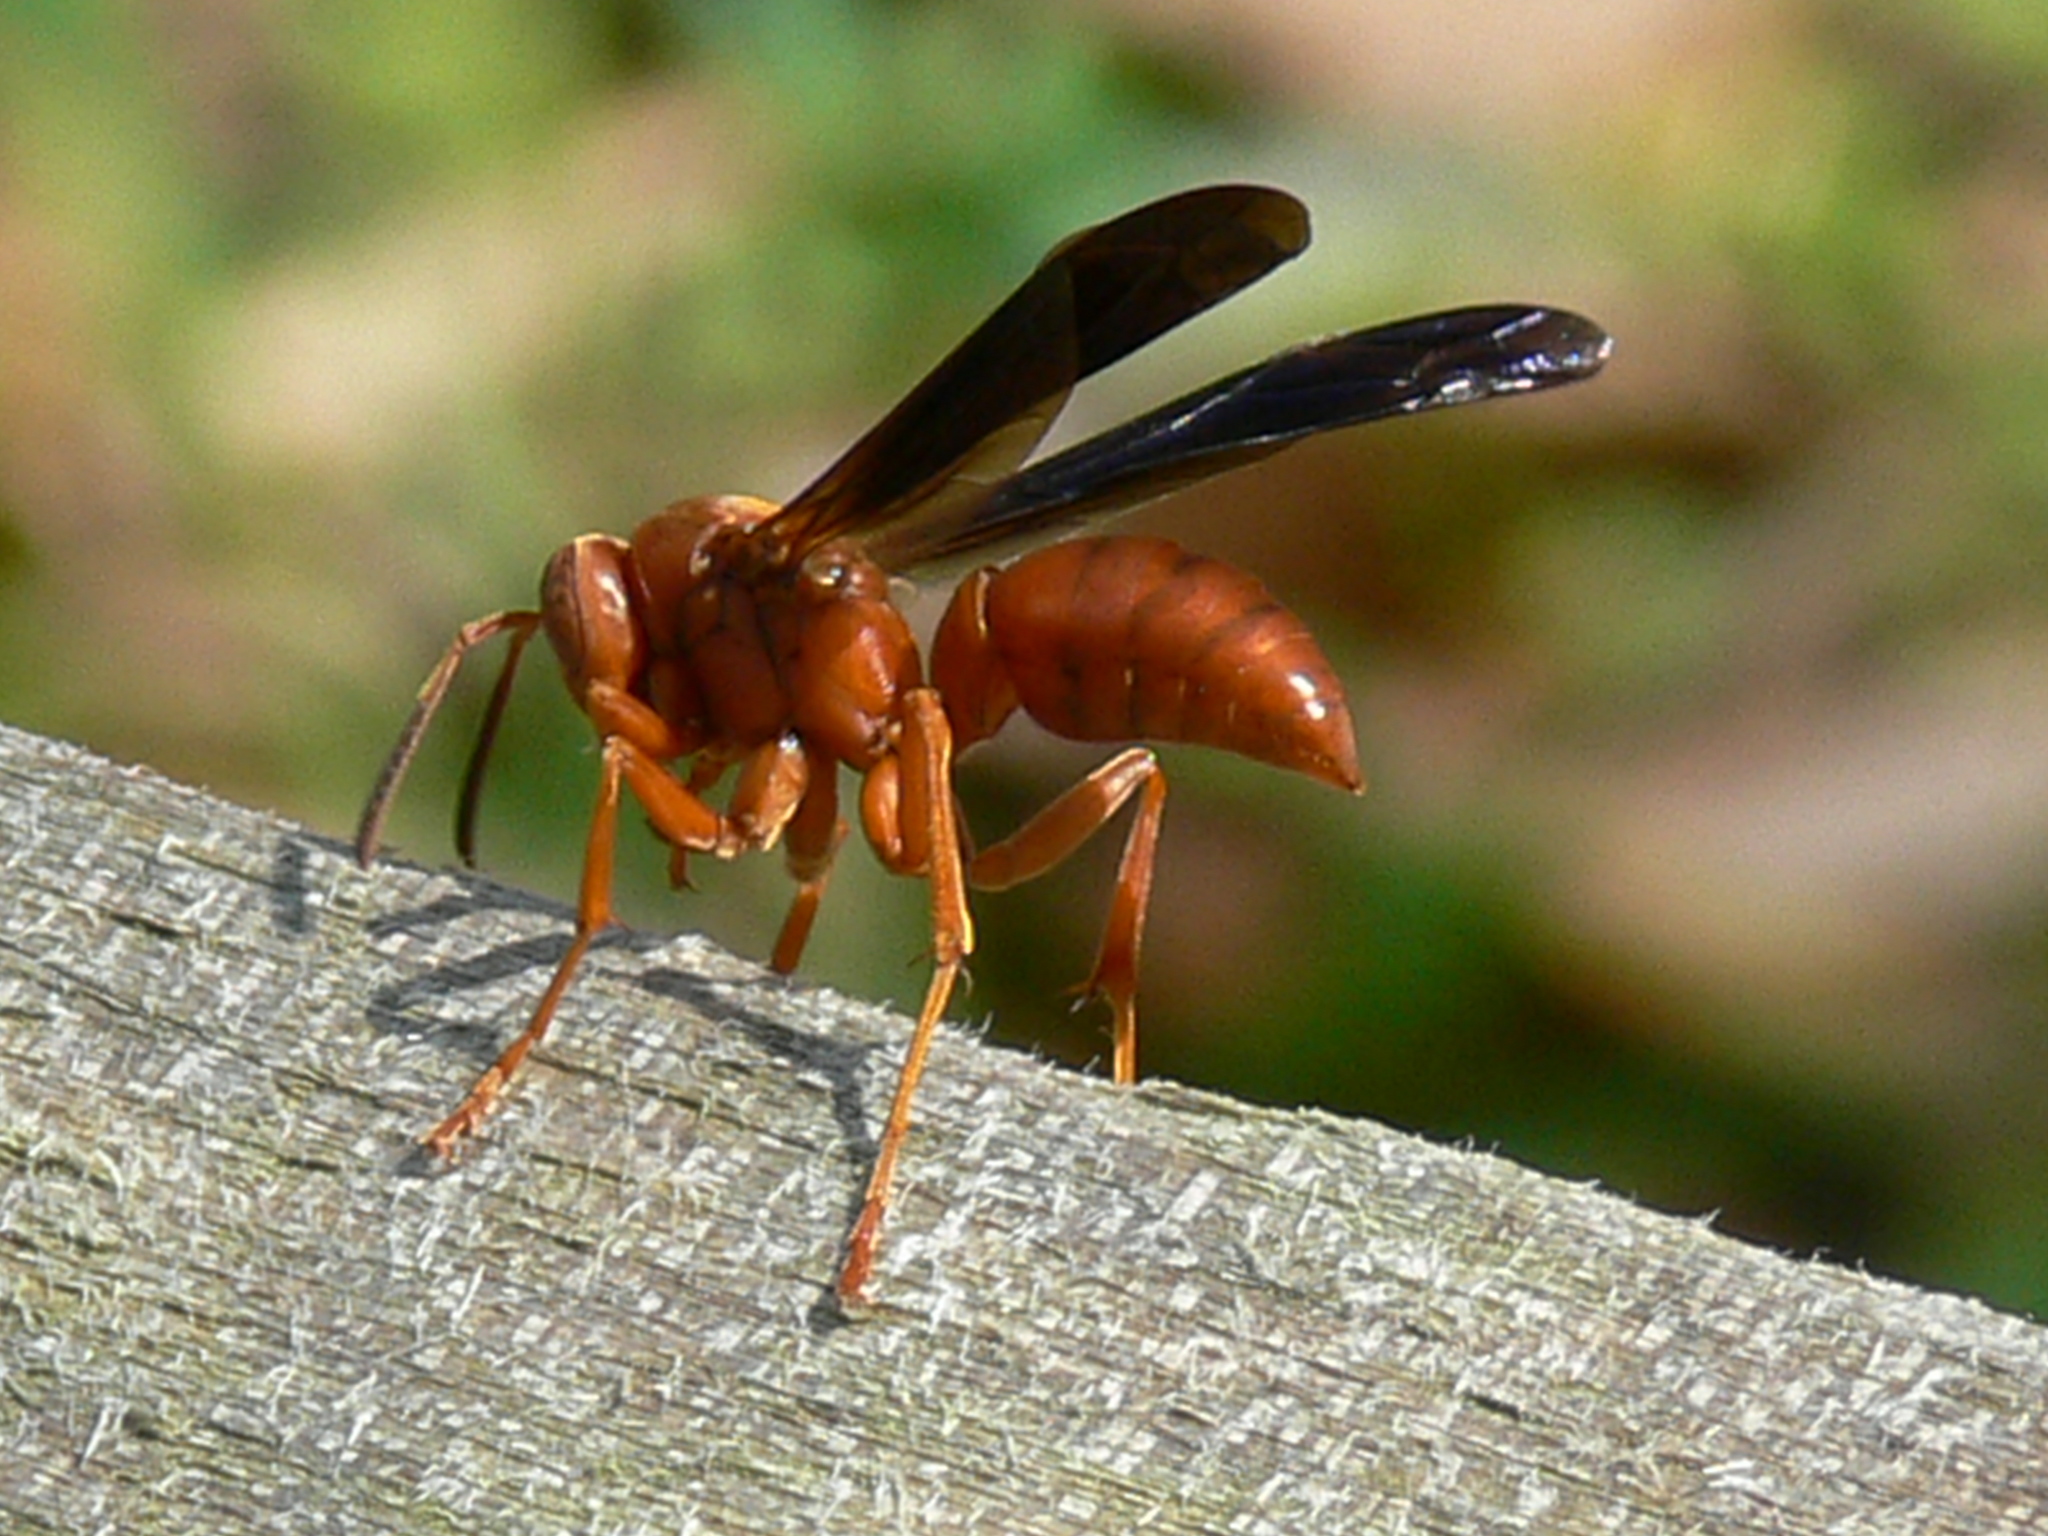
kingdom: Animalia
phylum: Arthropoda
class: Insecta
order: Hymenoptera
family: Vespidae
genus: Fuscopolistes
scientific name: Fuscopolistes
